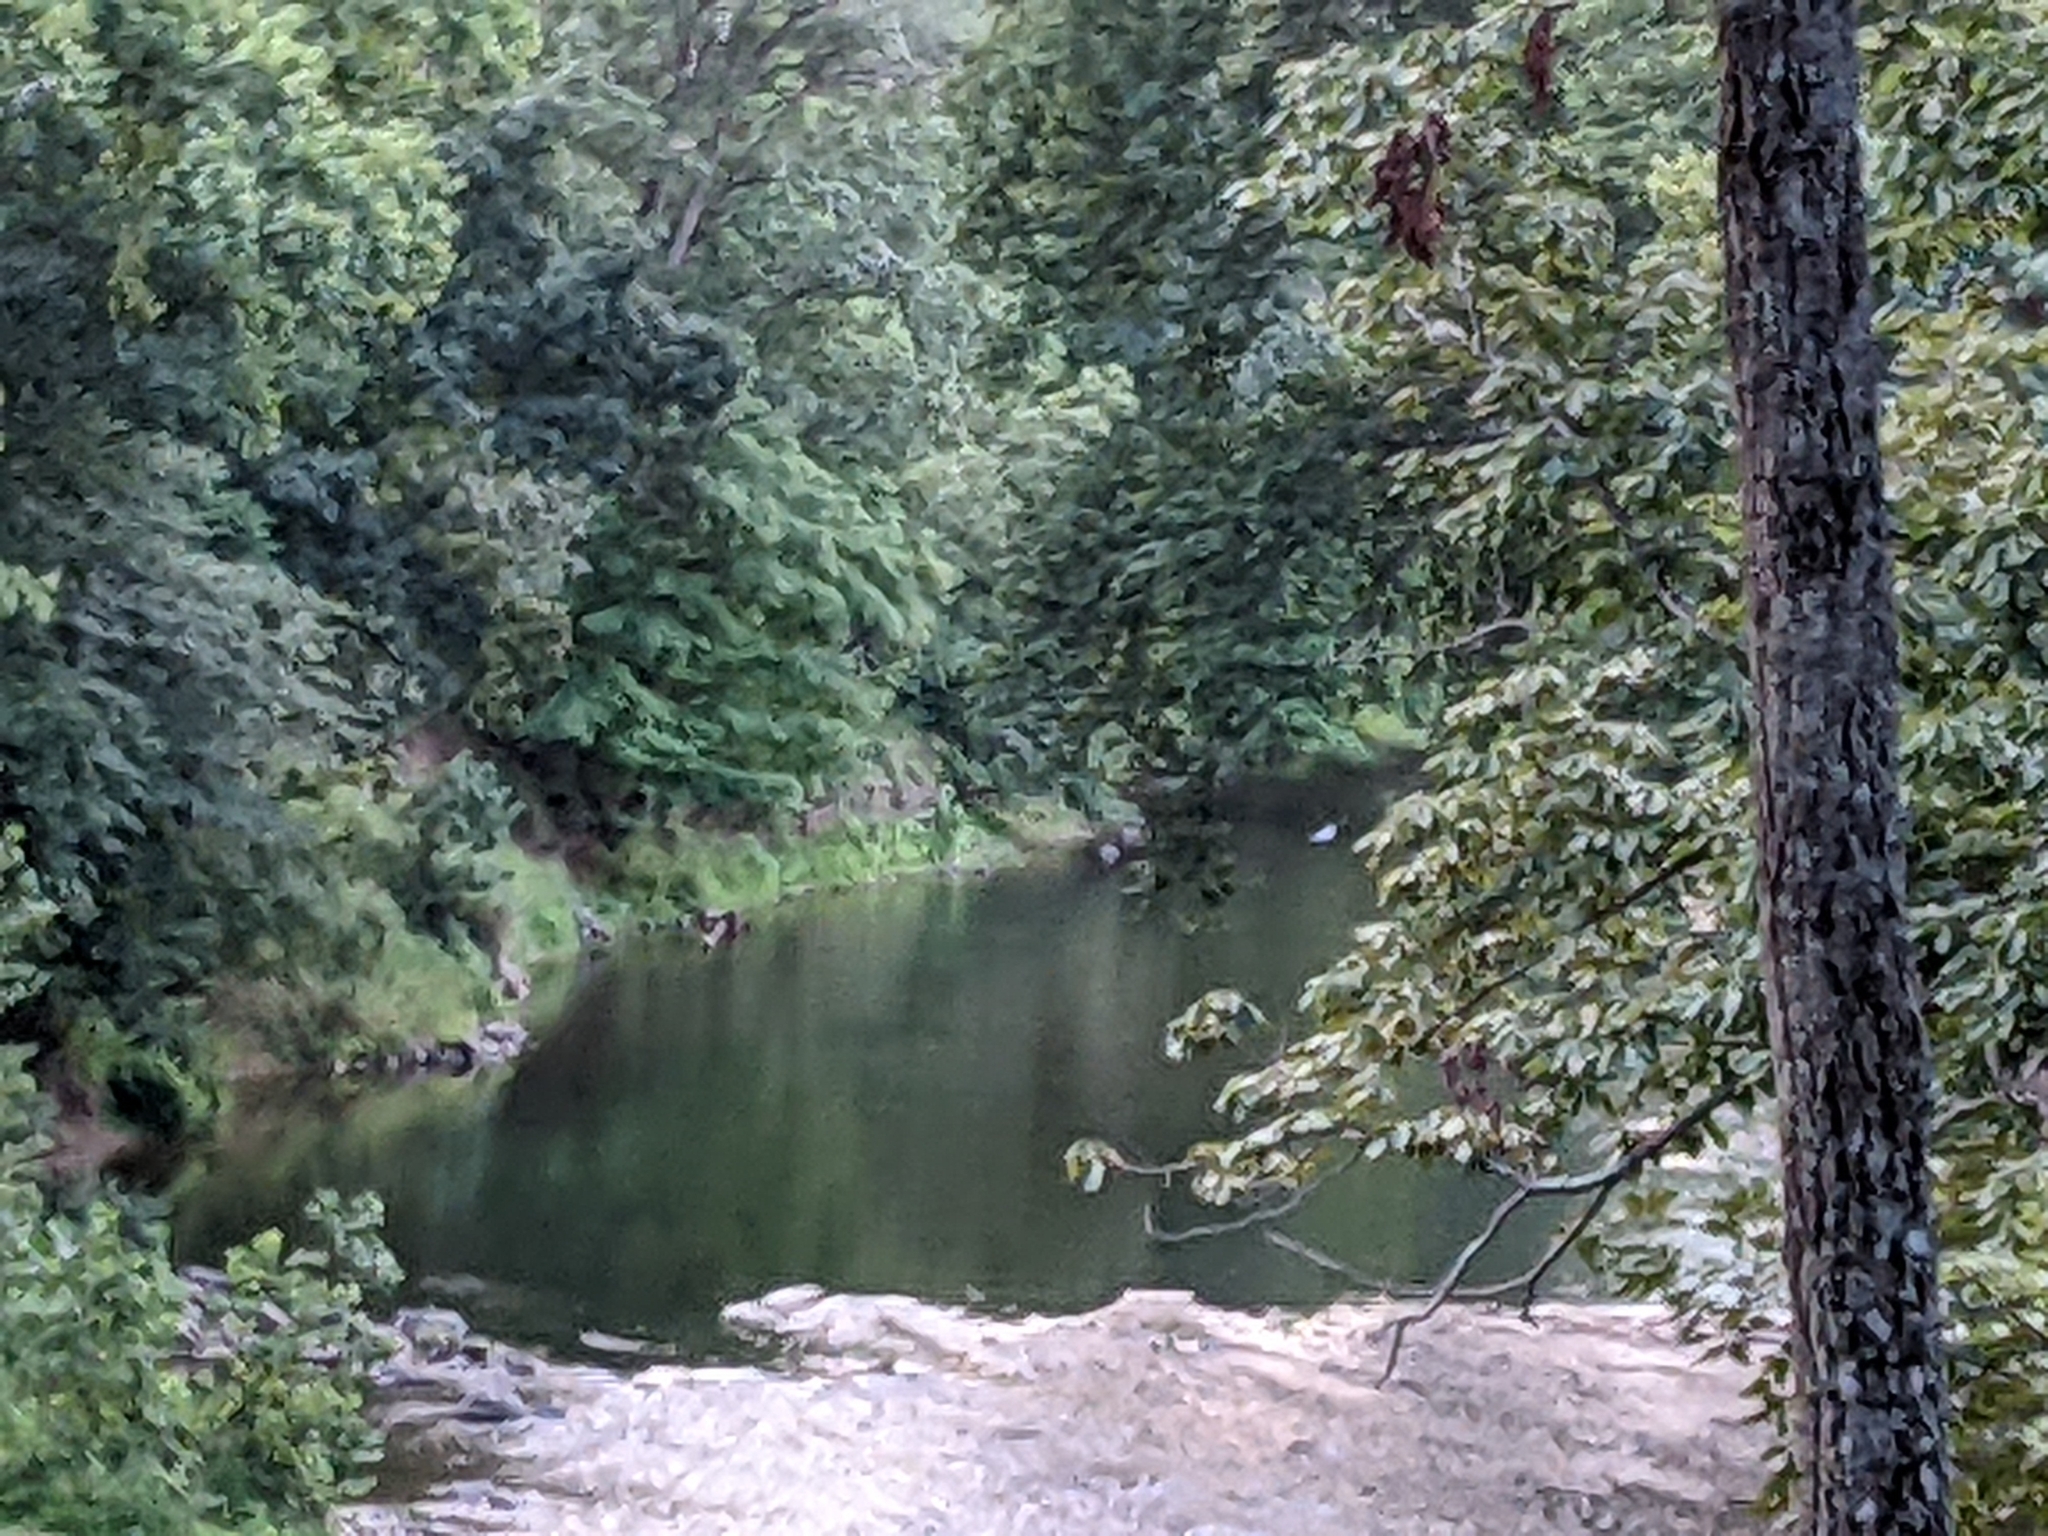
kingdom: Animalia
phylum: Chordata
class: Aves
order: Accipitriformes
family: Accipitridae
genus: Haliaeetus
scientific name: Haliaeetus leucocephalus
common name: Bald eagle
